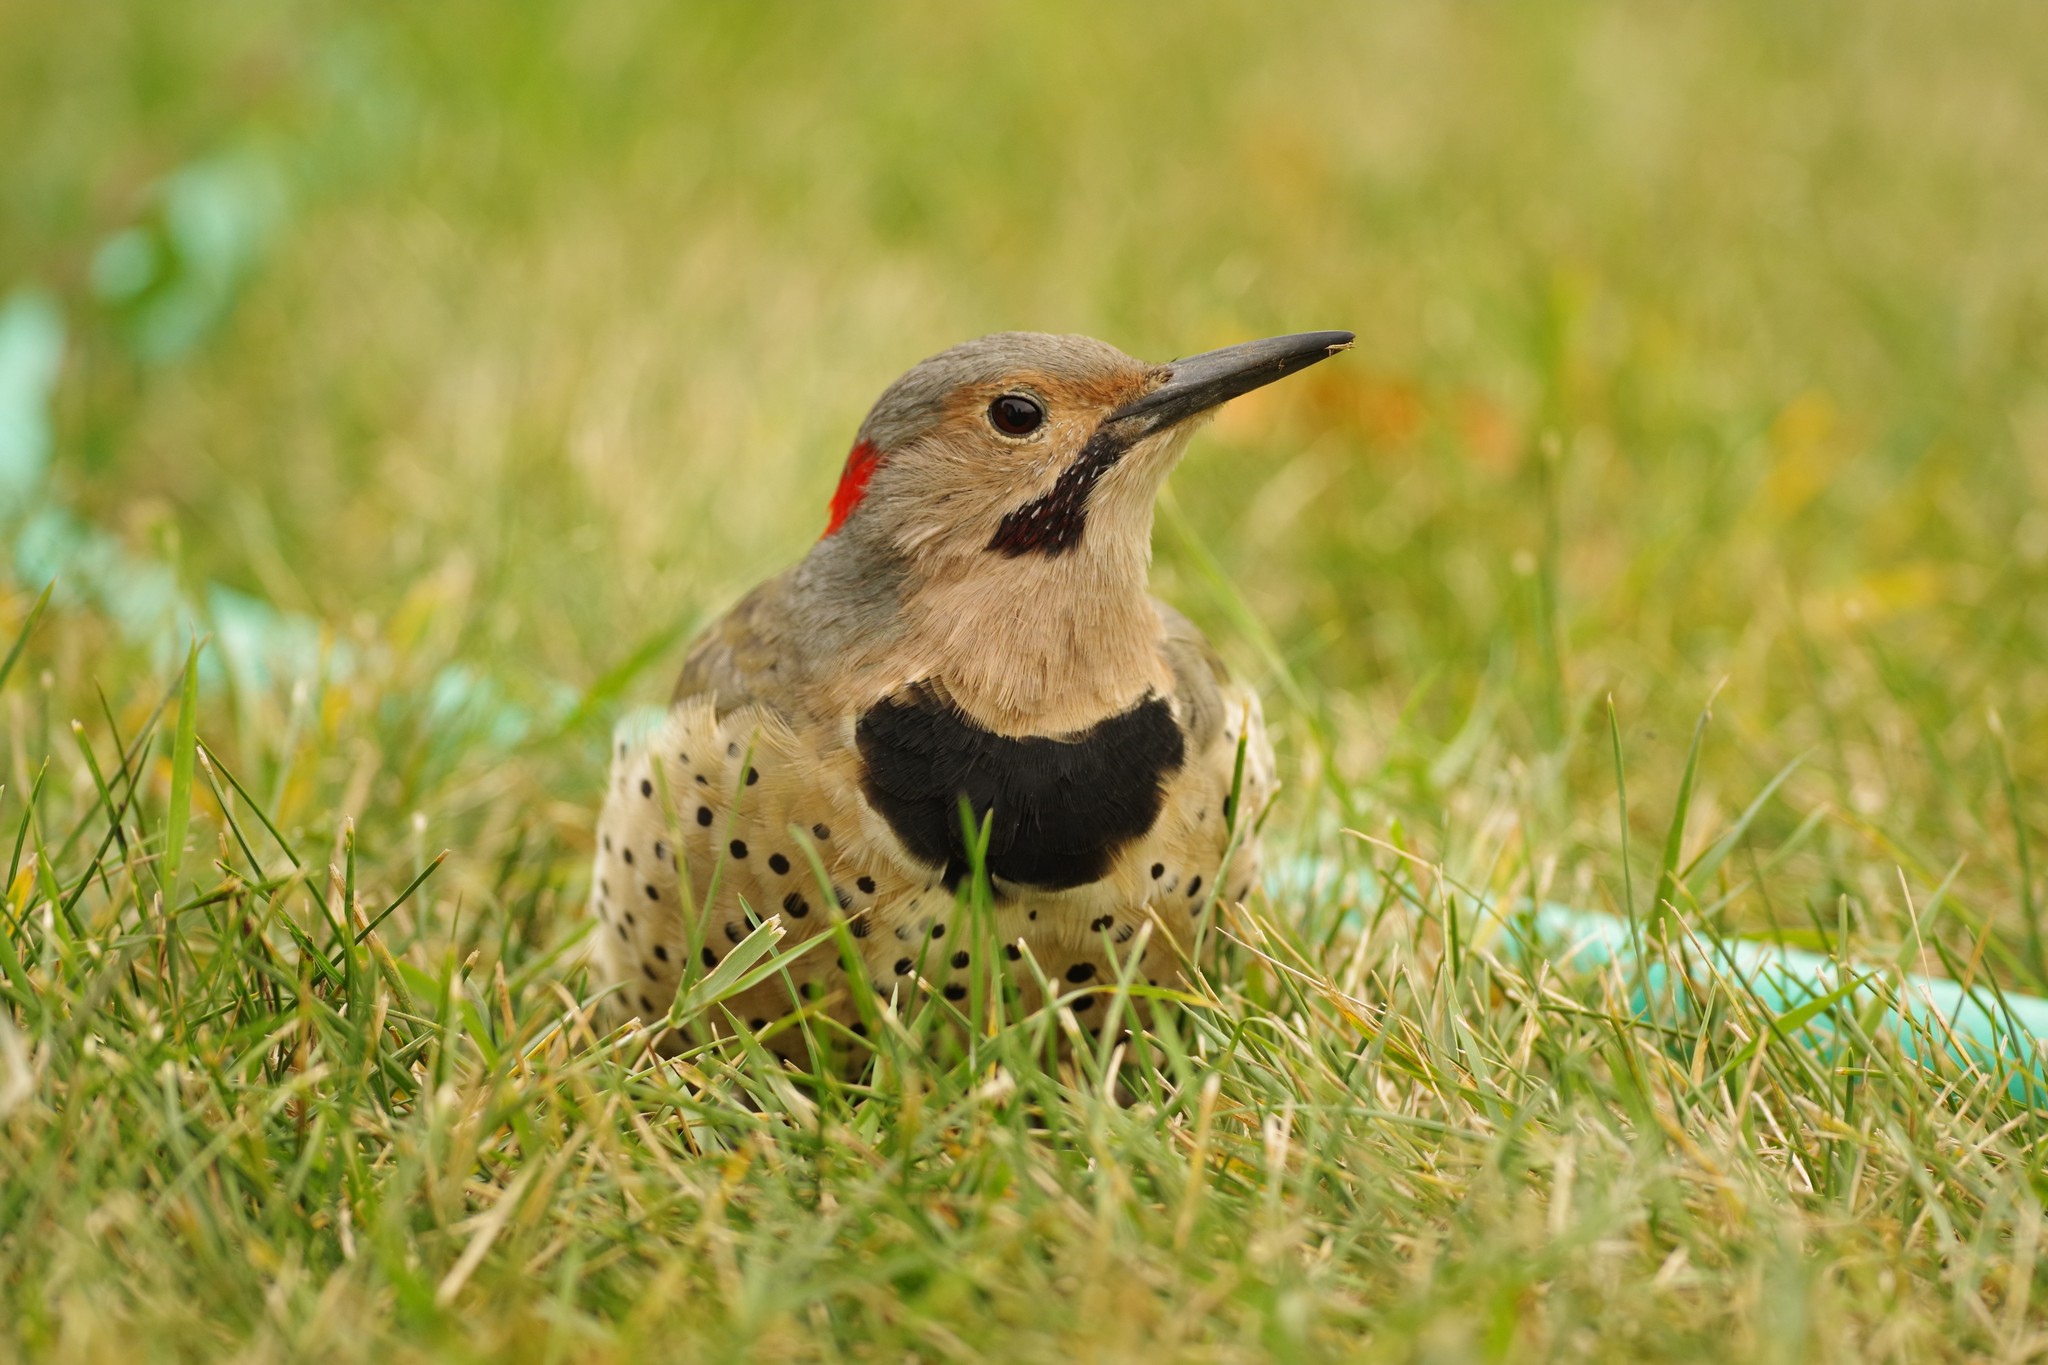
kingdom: Animalia
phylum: Chordata
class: Aves
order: Piciformes
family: Picidae
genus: Colaptes
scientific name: Colaptes auratus
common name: Northern flicker
